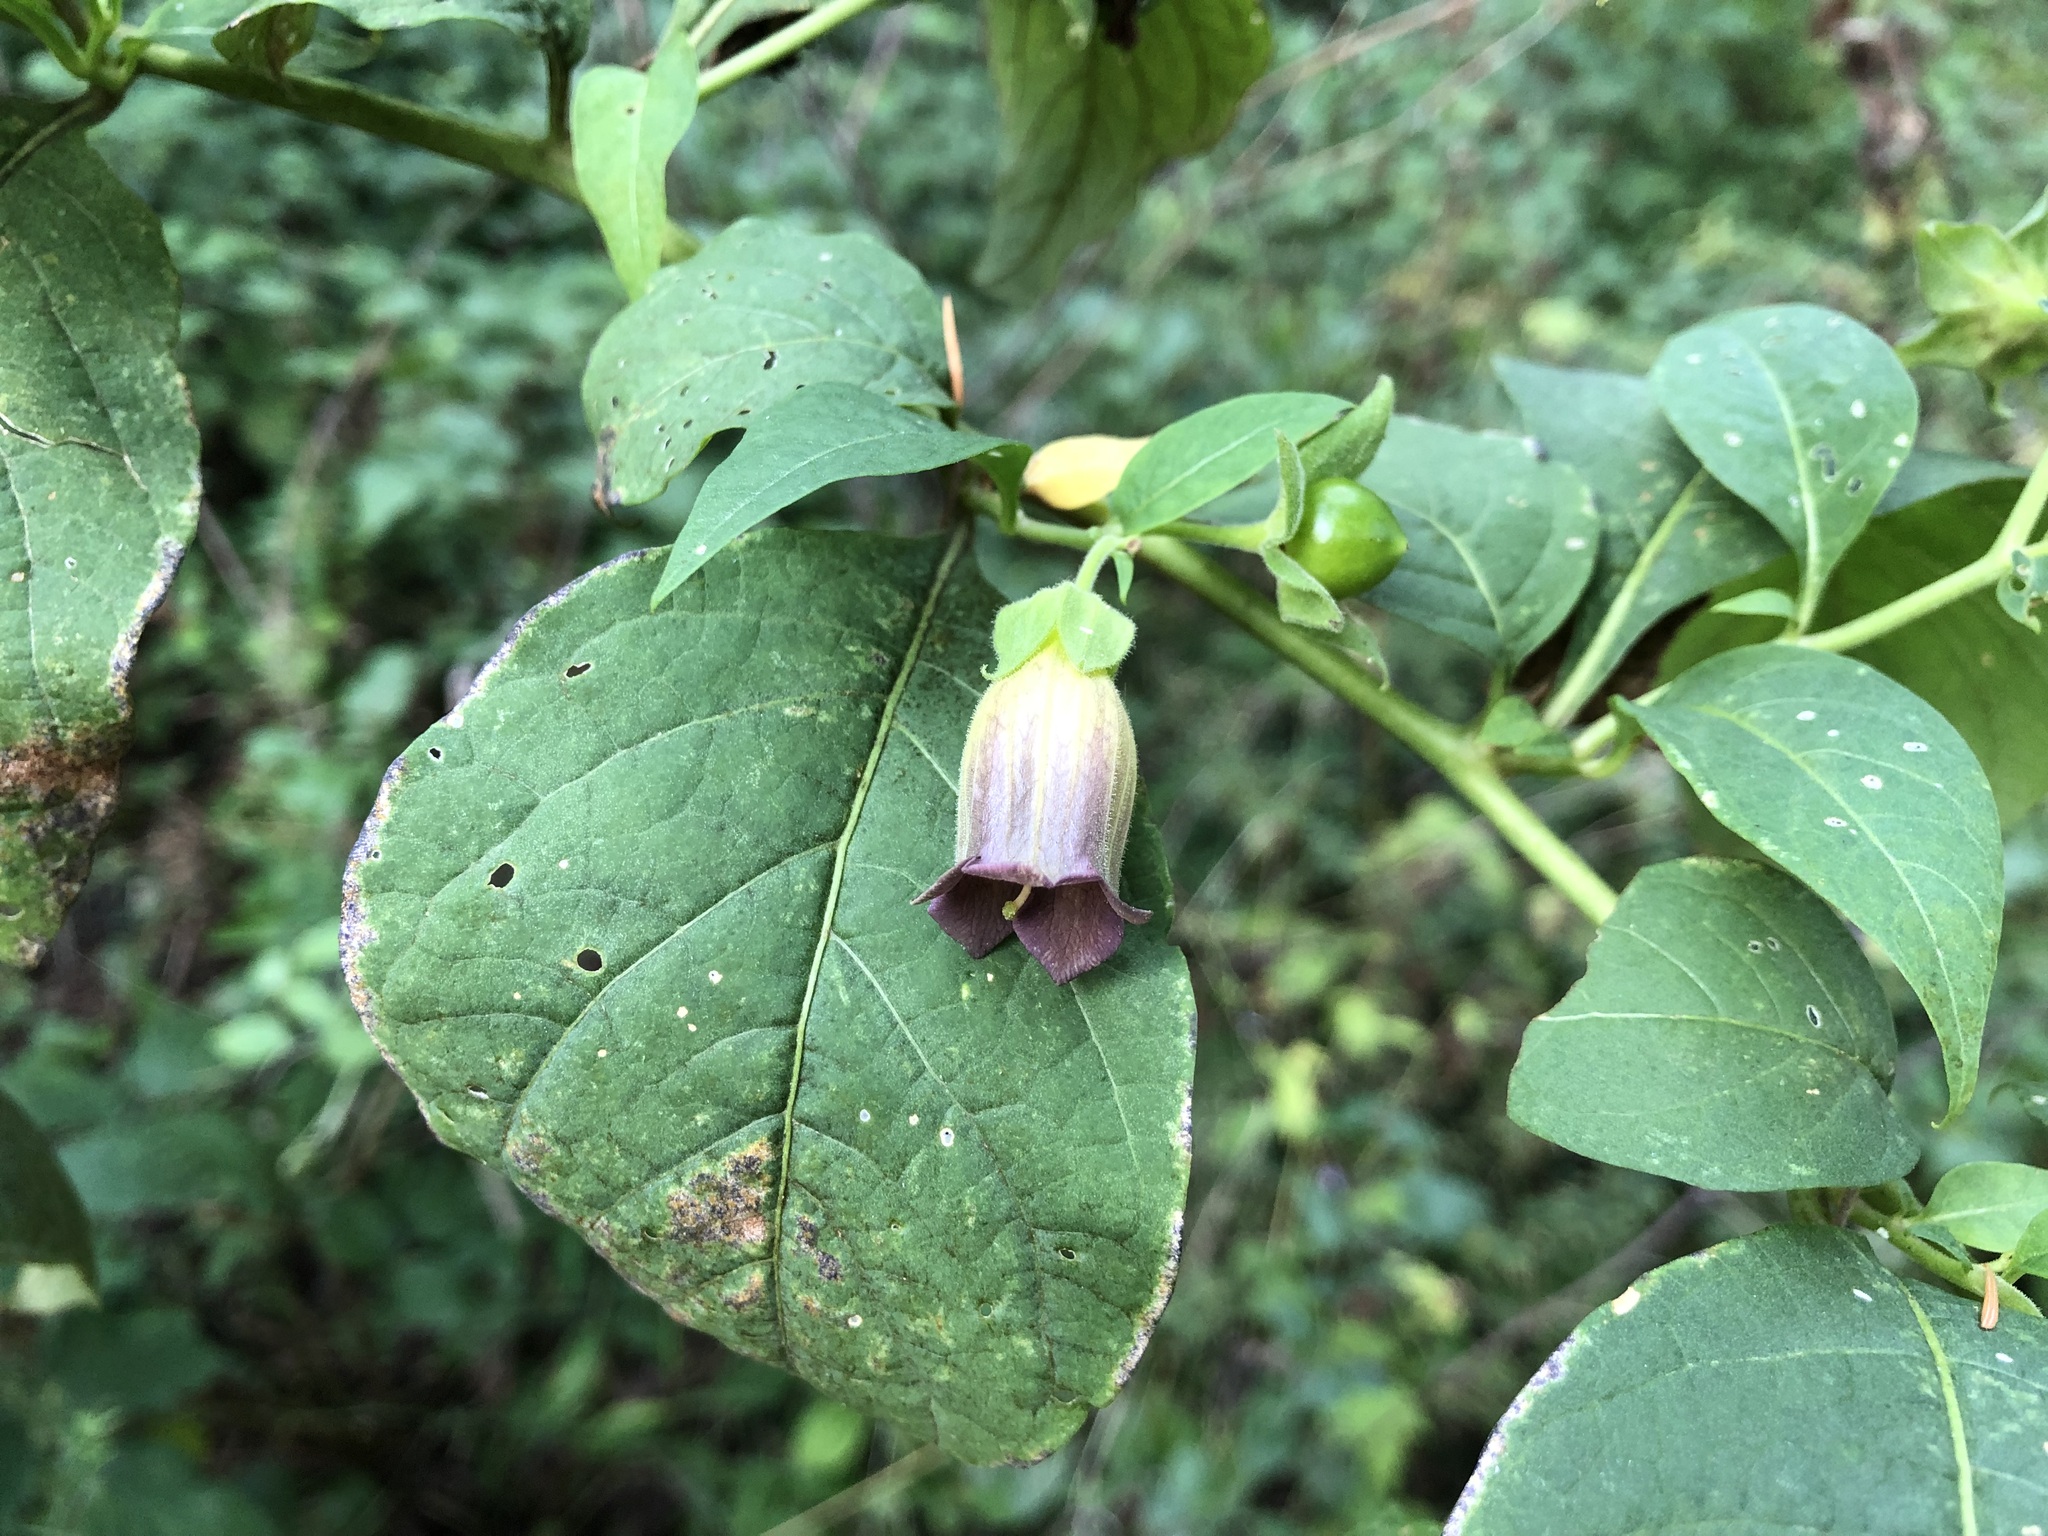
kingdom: Plantae
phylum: Tracheophyta
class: Magnoliopsida
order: Solanales
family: Solanaceae
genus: Atropa
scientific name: Atropa belladonna
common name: Deadly nightshade
